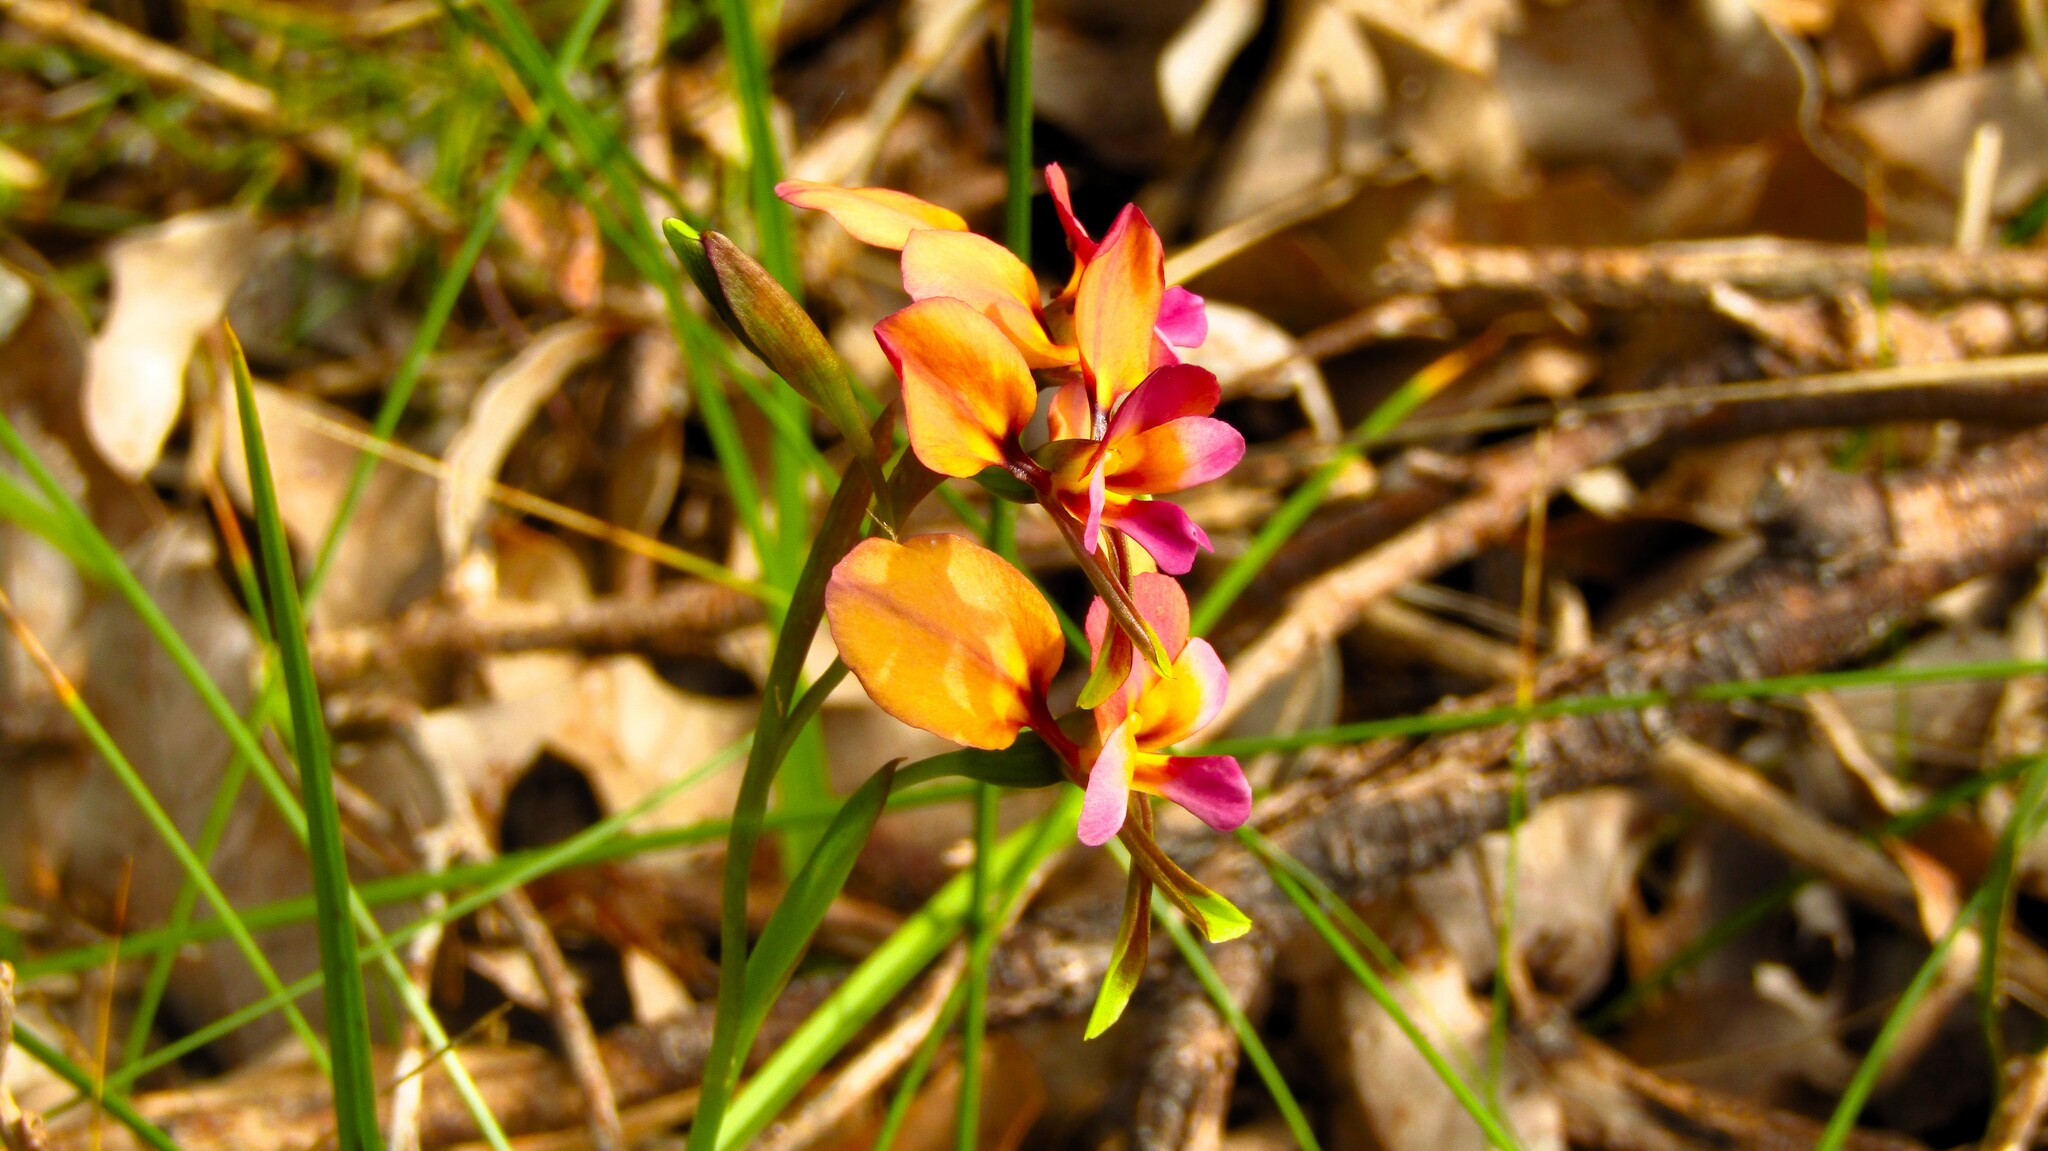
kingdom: Plantae
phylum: Tracheophyta
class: Liliopsida
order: Asparagales
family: Orchidaceae
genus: Diuris
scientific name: Diuris longifolia
